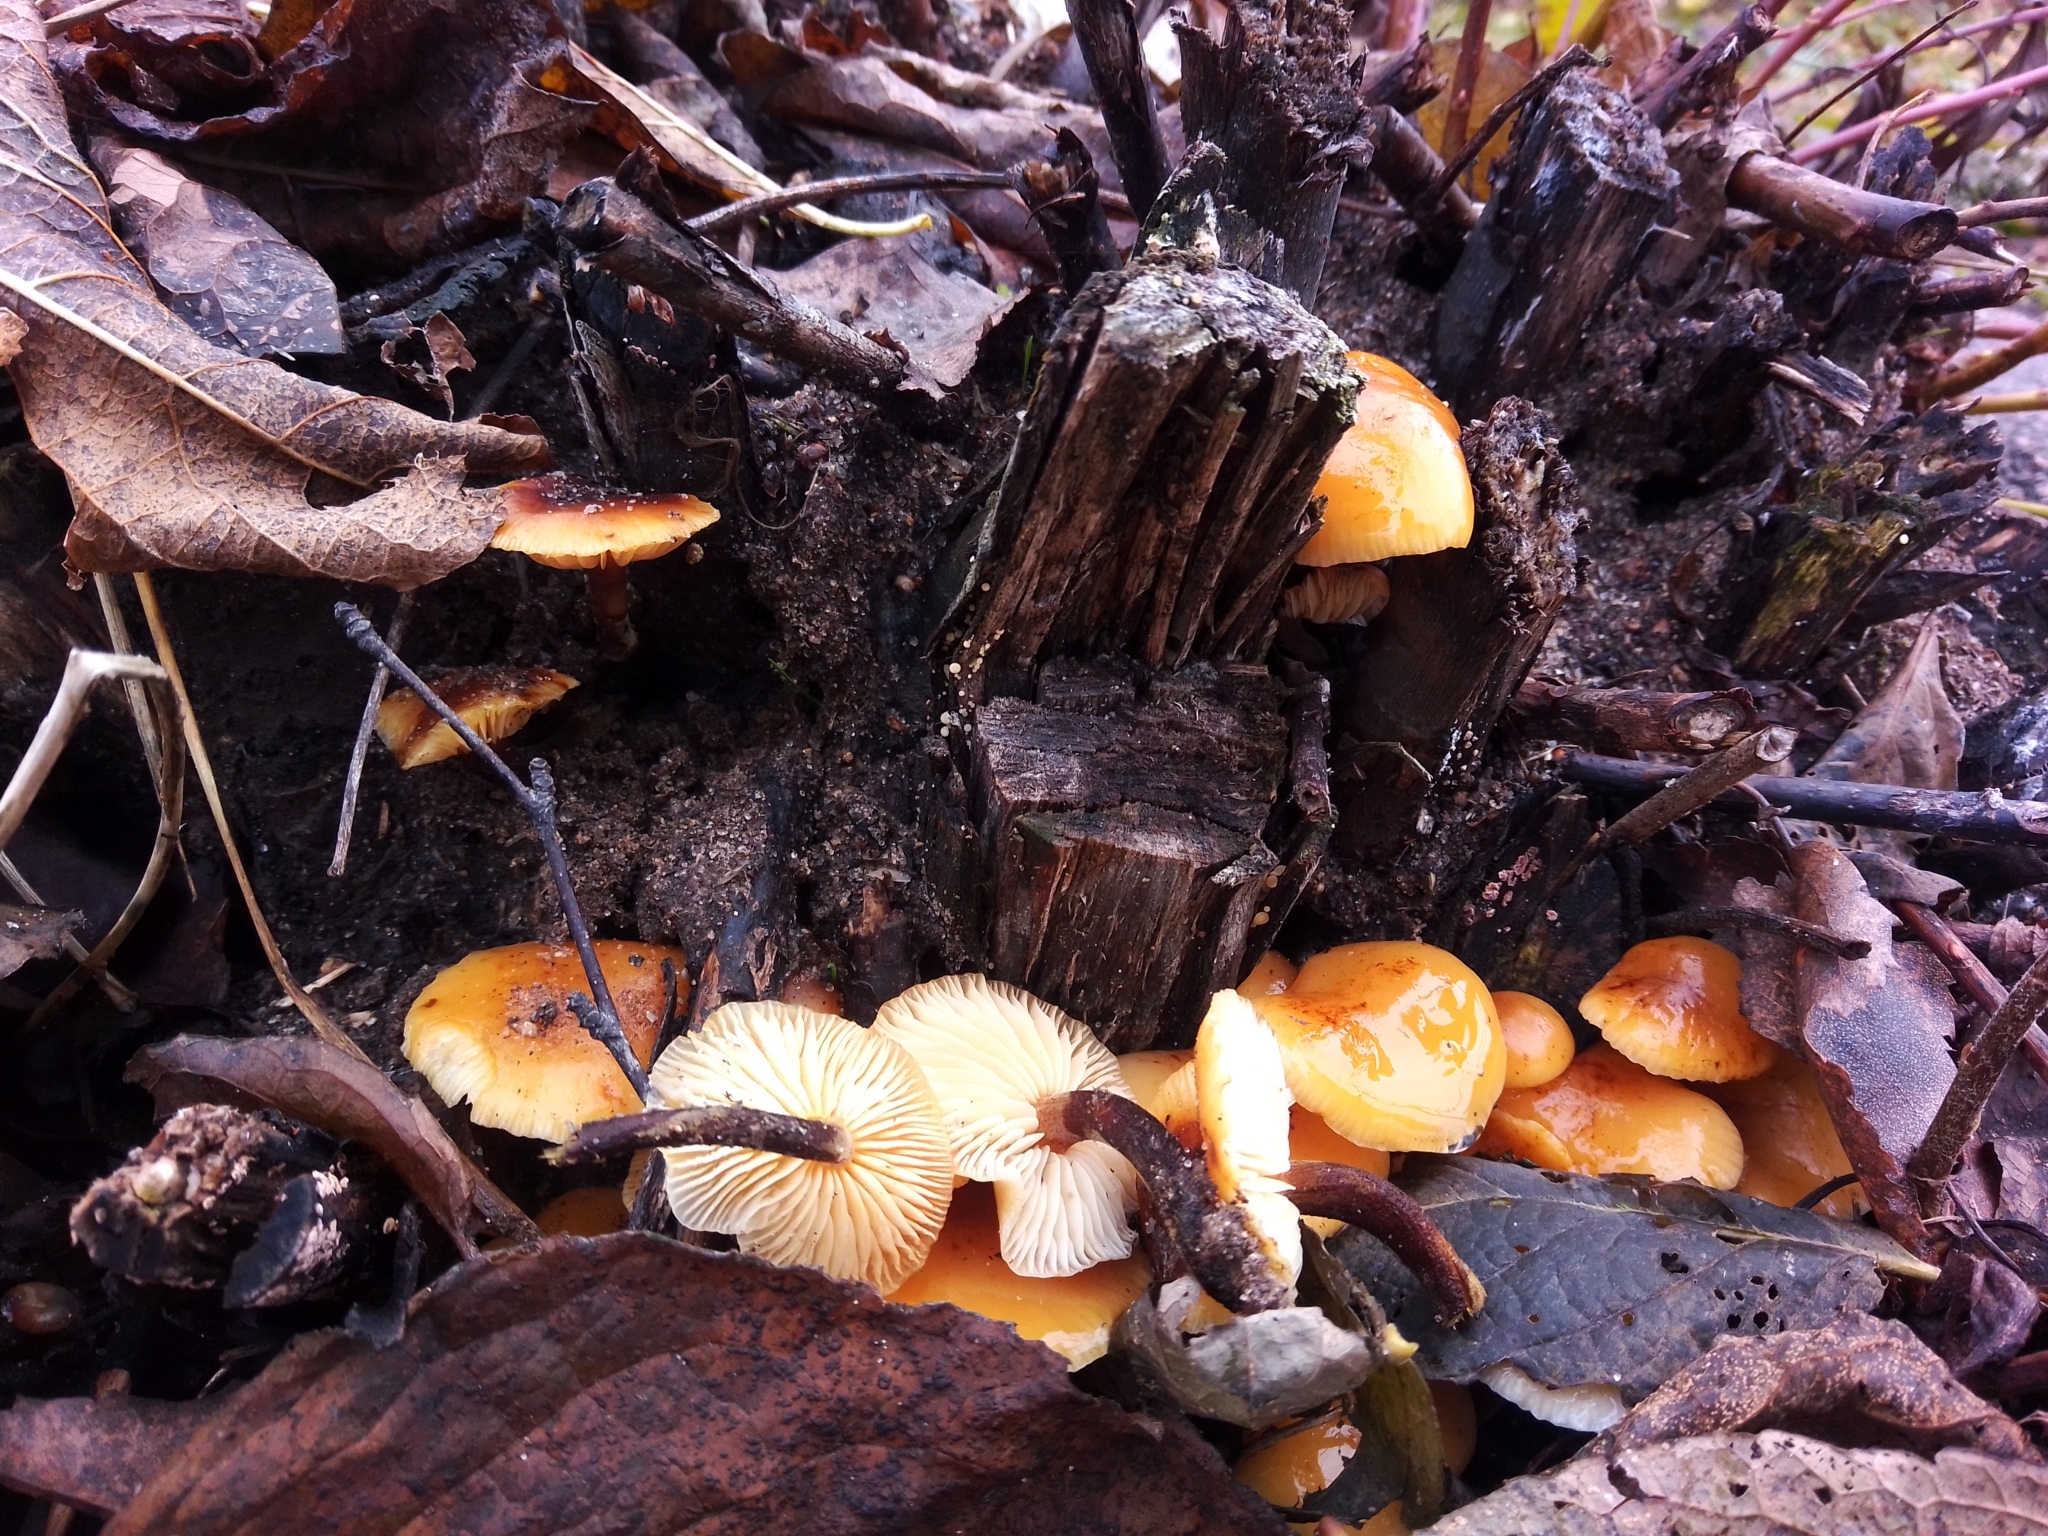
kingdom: Fungi
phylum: Basidiomycota
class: Agaricomycetes
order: Agaricales
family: Physalacriaceae
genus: Flammulina
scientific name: Flammulina
